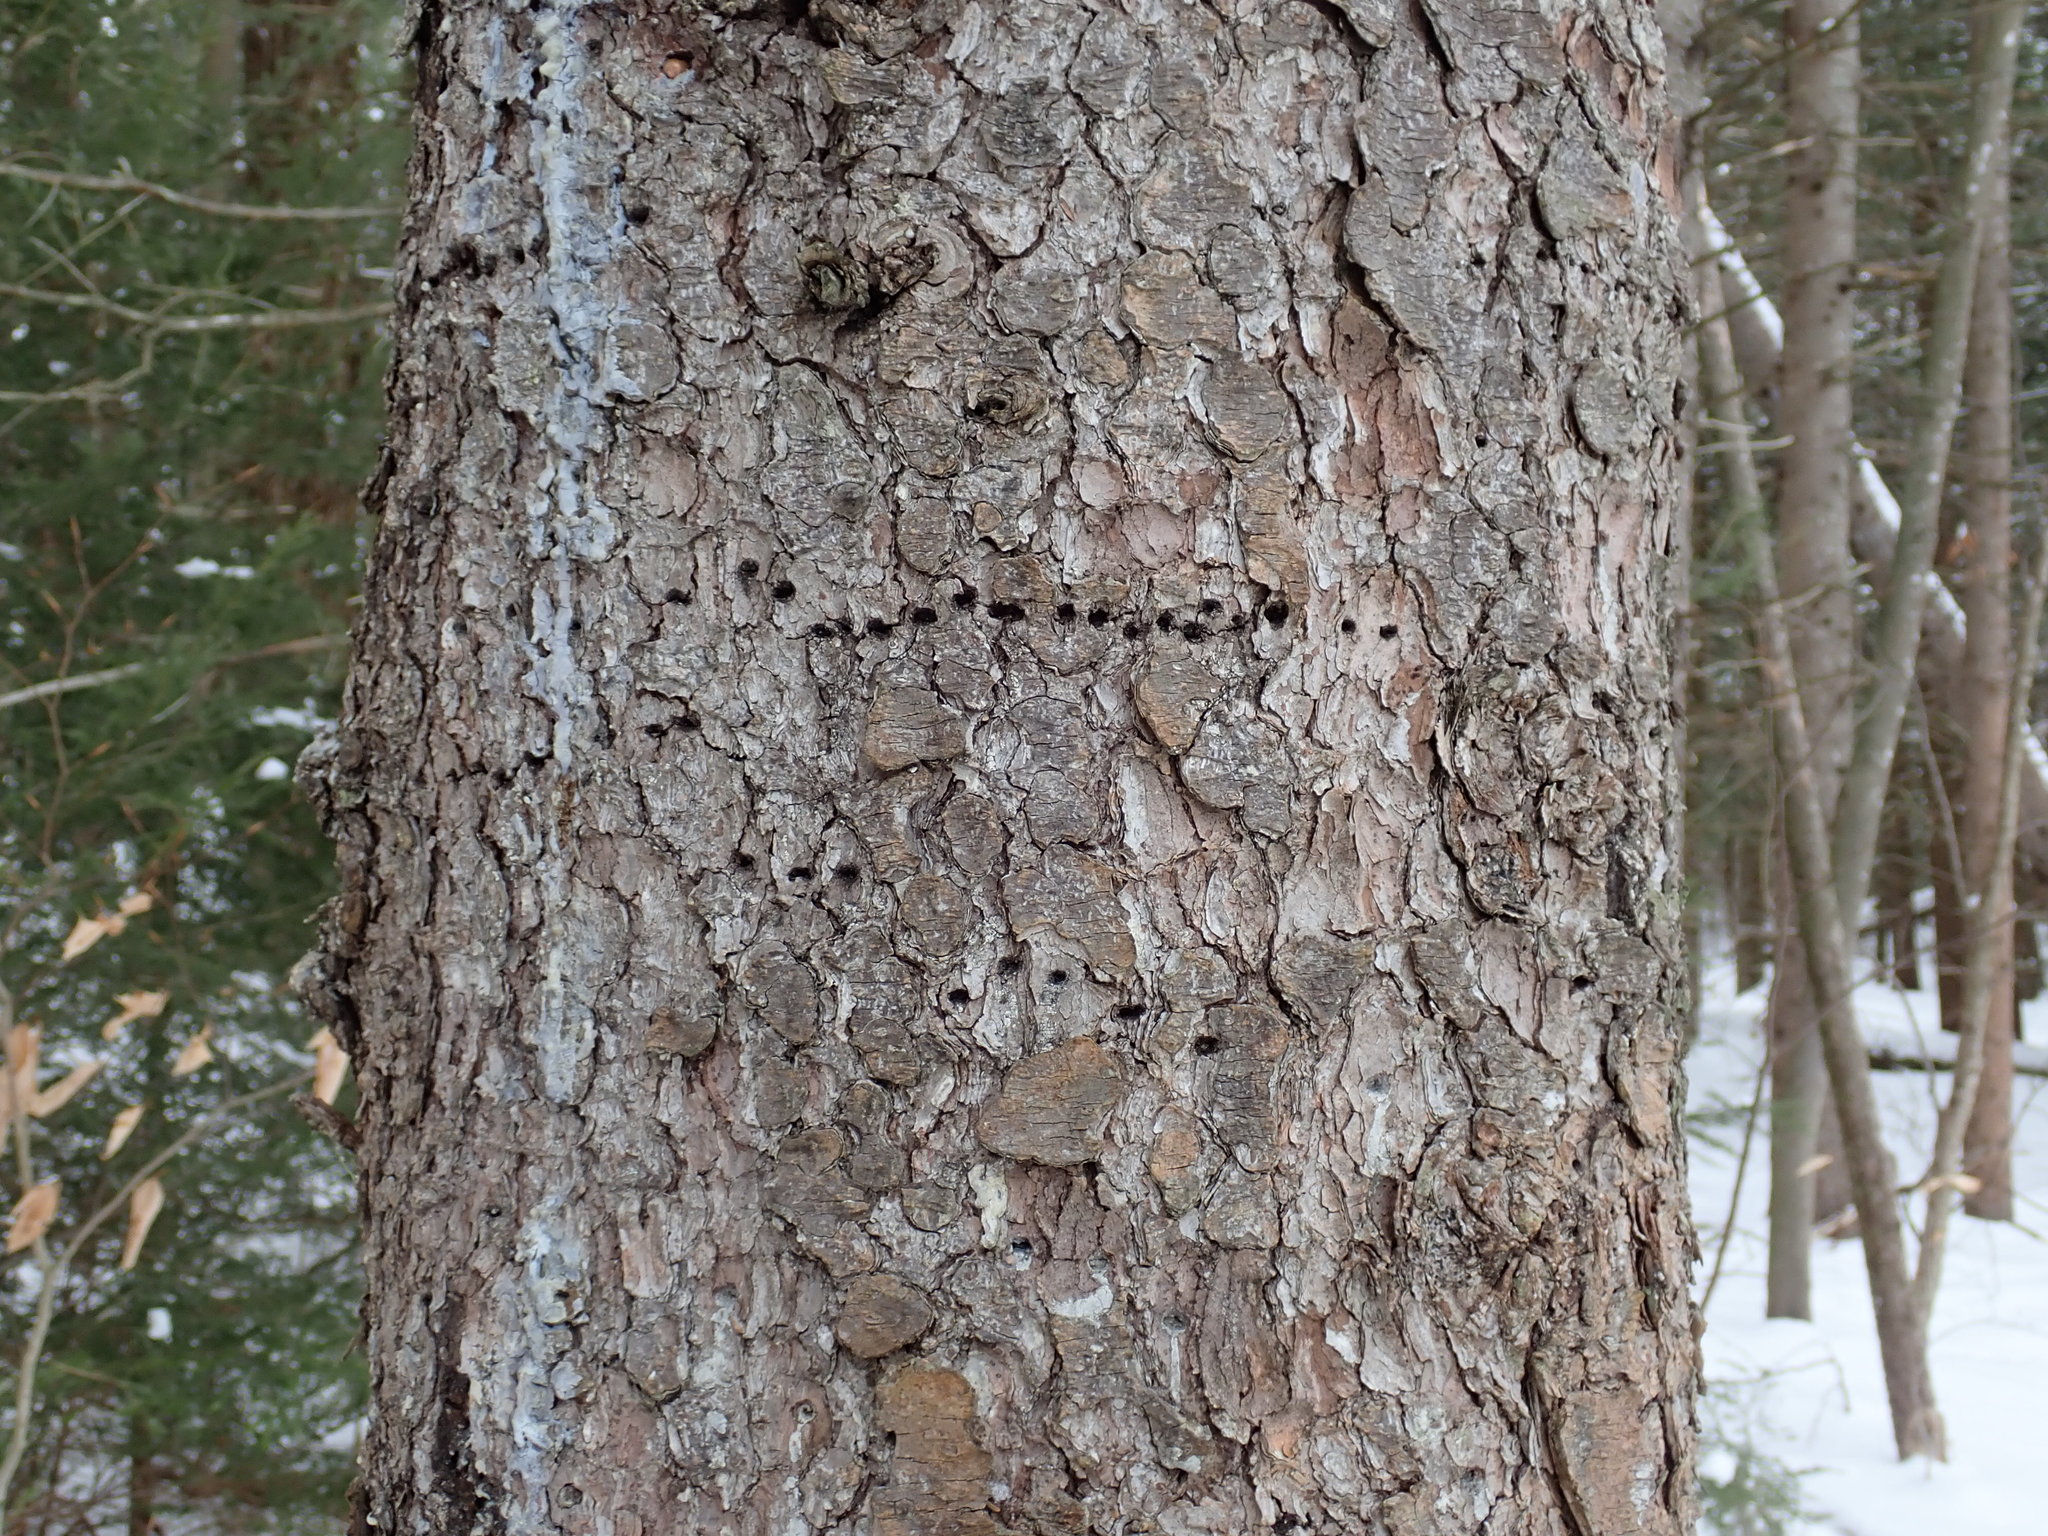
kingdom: Animalia
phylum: Chordata
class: Aves
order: Piciformes
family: Picidae
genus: Sphyrapicus
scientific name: Sphyrapicus varius
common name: Yellow-bellied sapsucker
